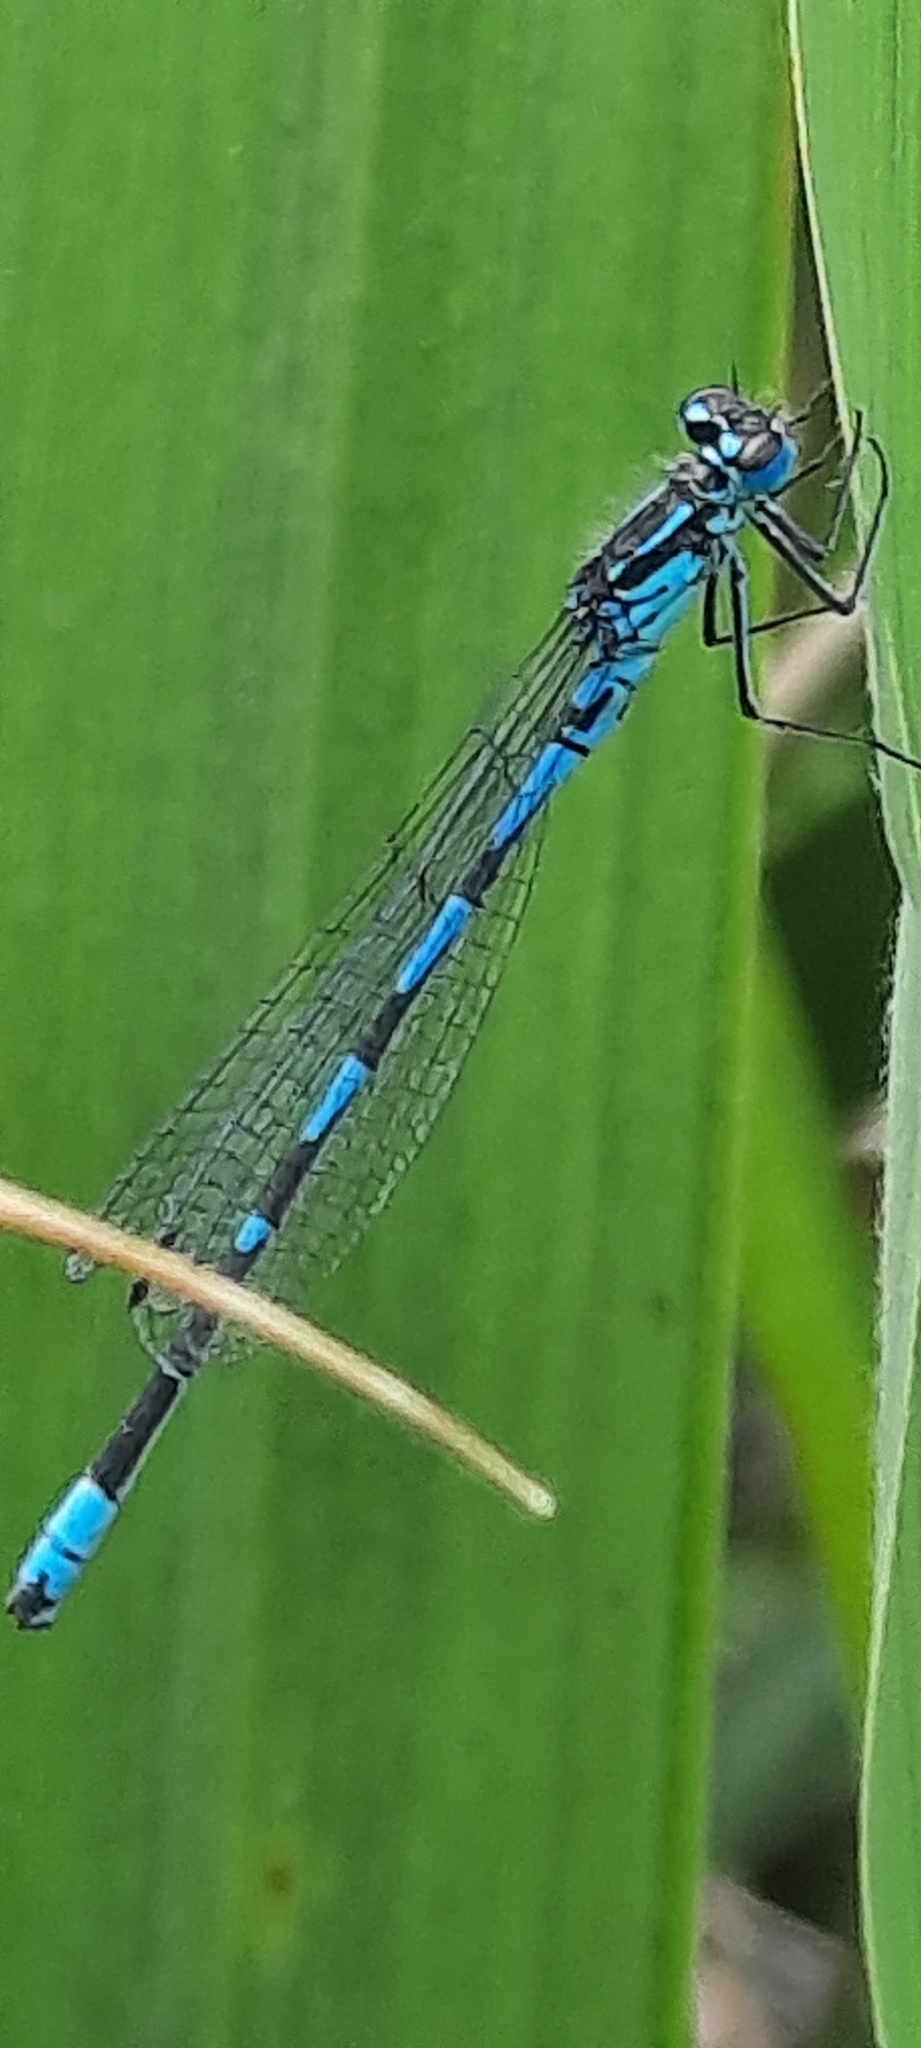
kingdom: Animalia
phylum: Arthropoda
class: Insecta
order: Odonata
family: Coenagrionidae
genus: Coenagrion
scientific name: Coenagrion pulchellum
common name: Variable bluet
